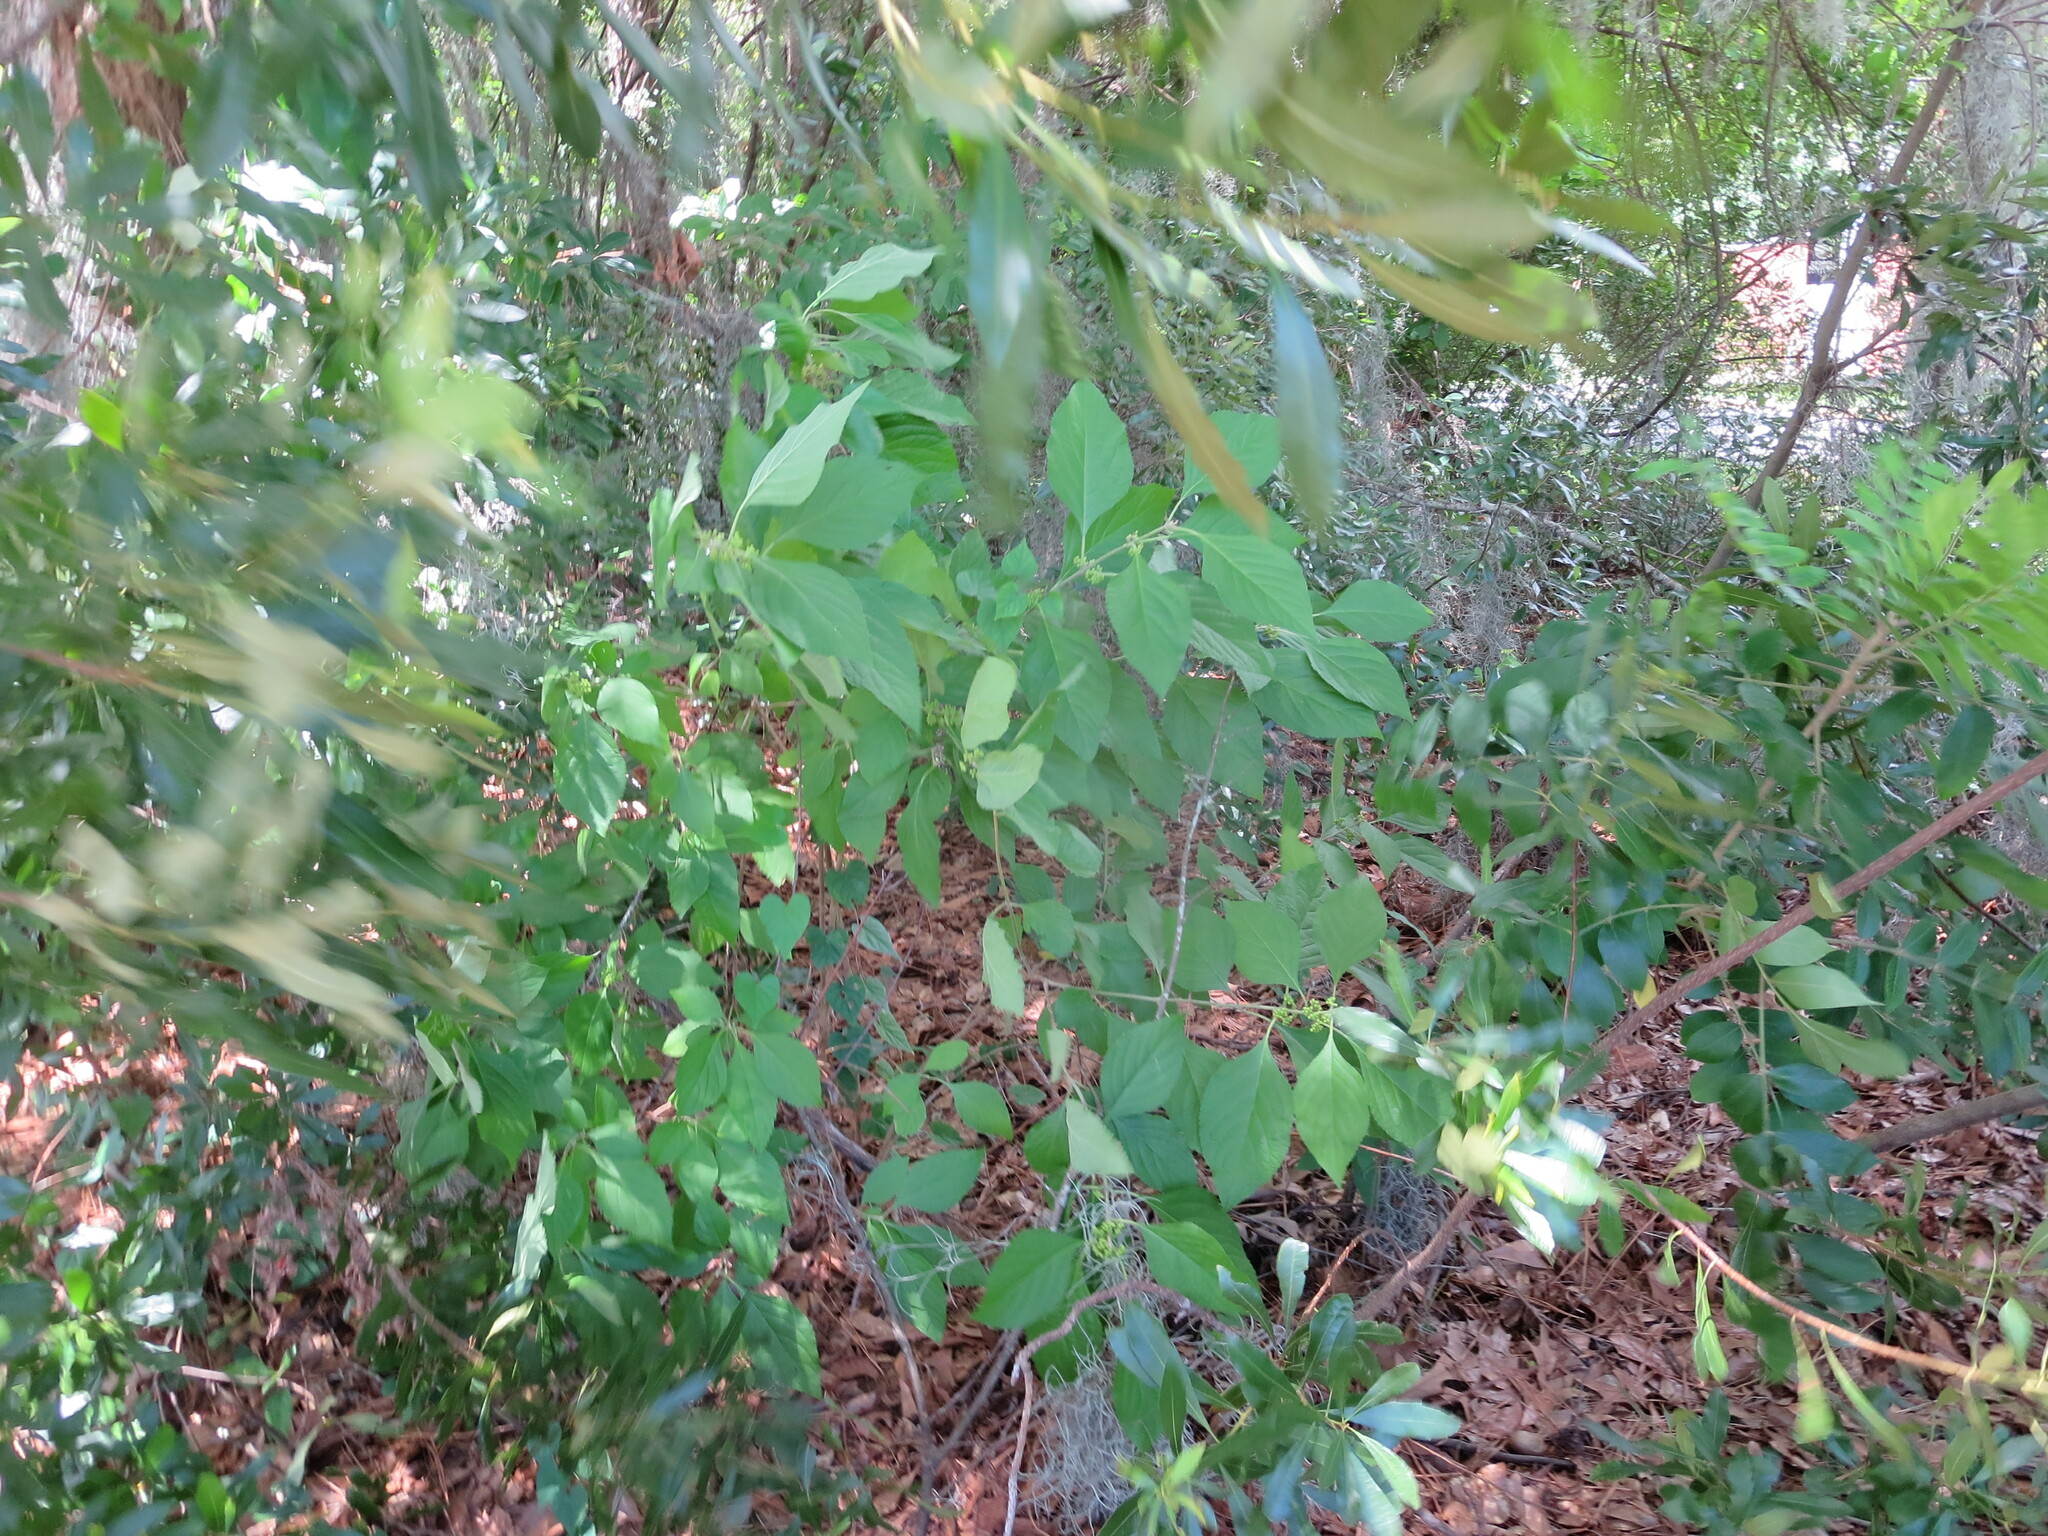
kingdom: Plantae
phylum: Tracheophyta
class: Magnoliopsida
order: Lamiales
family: Lamiaceae
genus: Callicarpa
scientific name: Callicarpa americana
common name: American beautyberry
